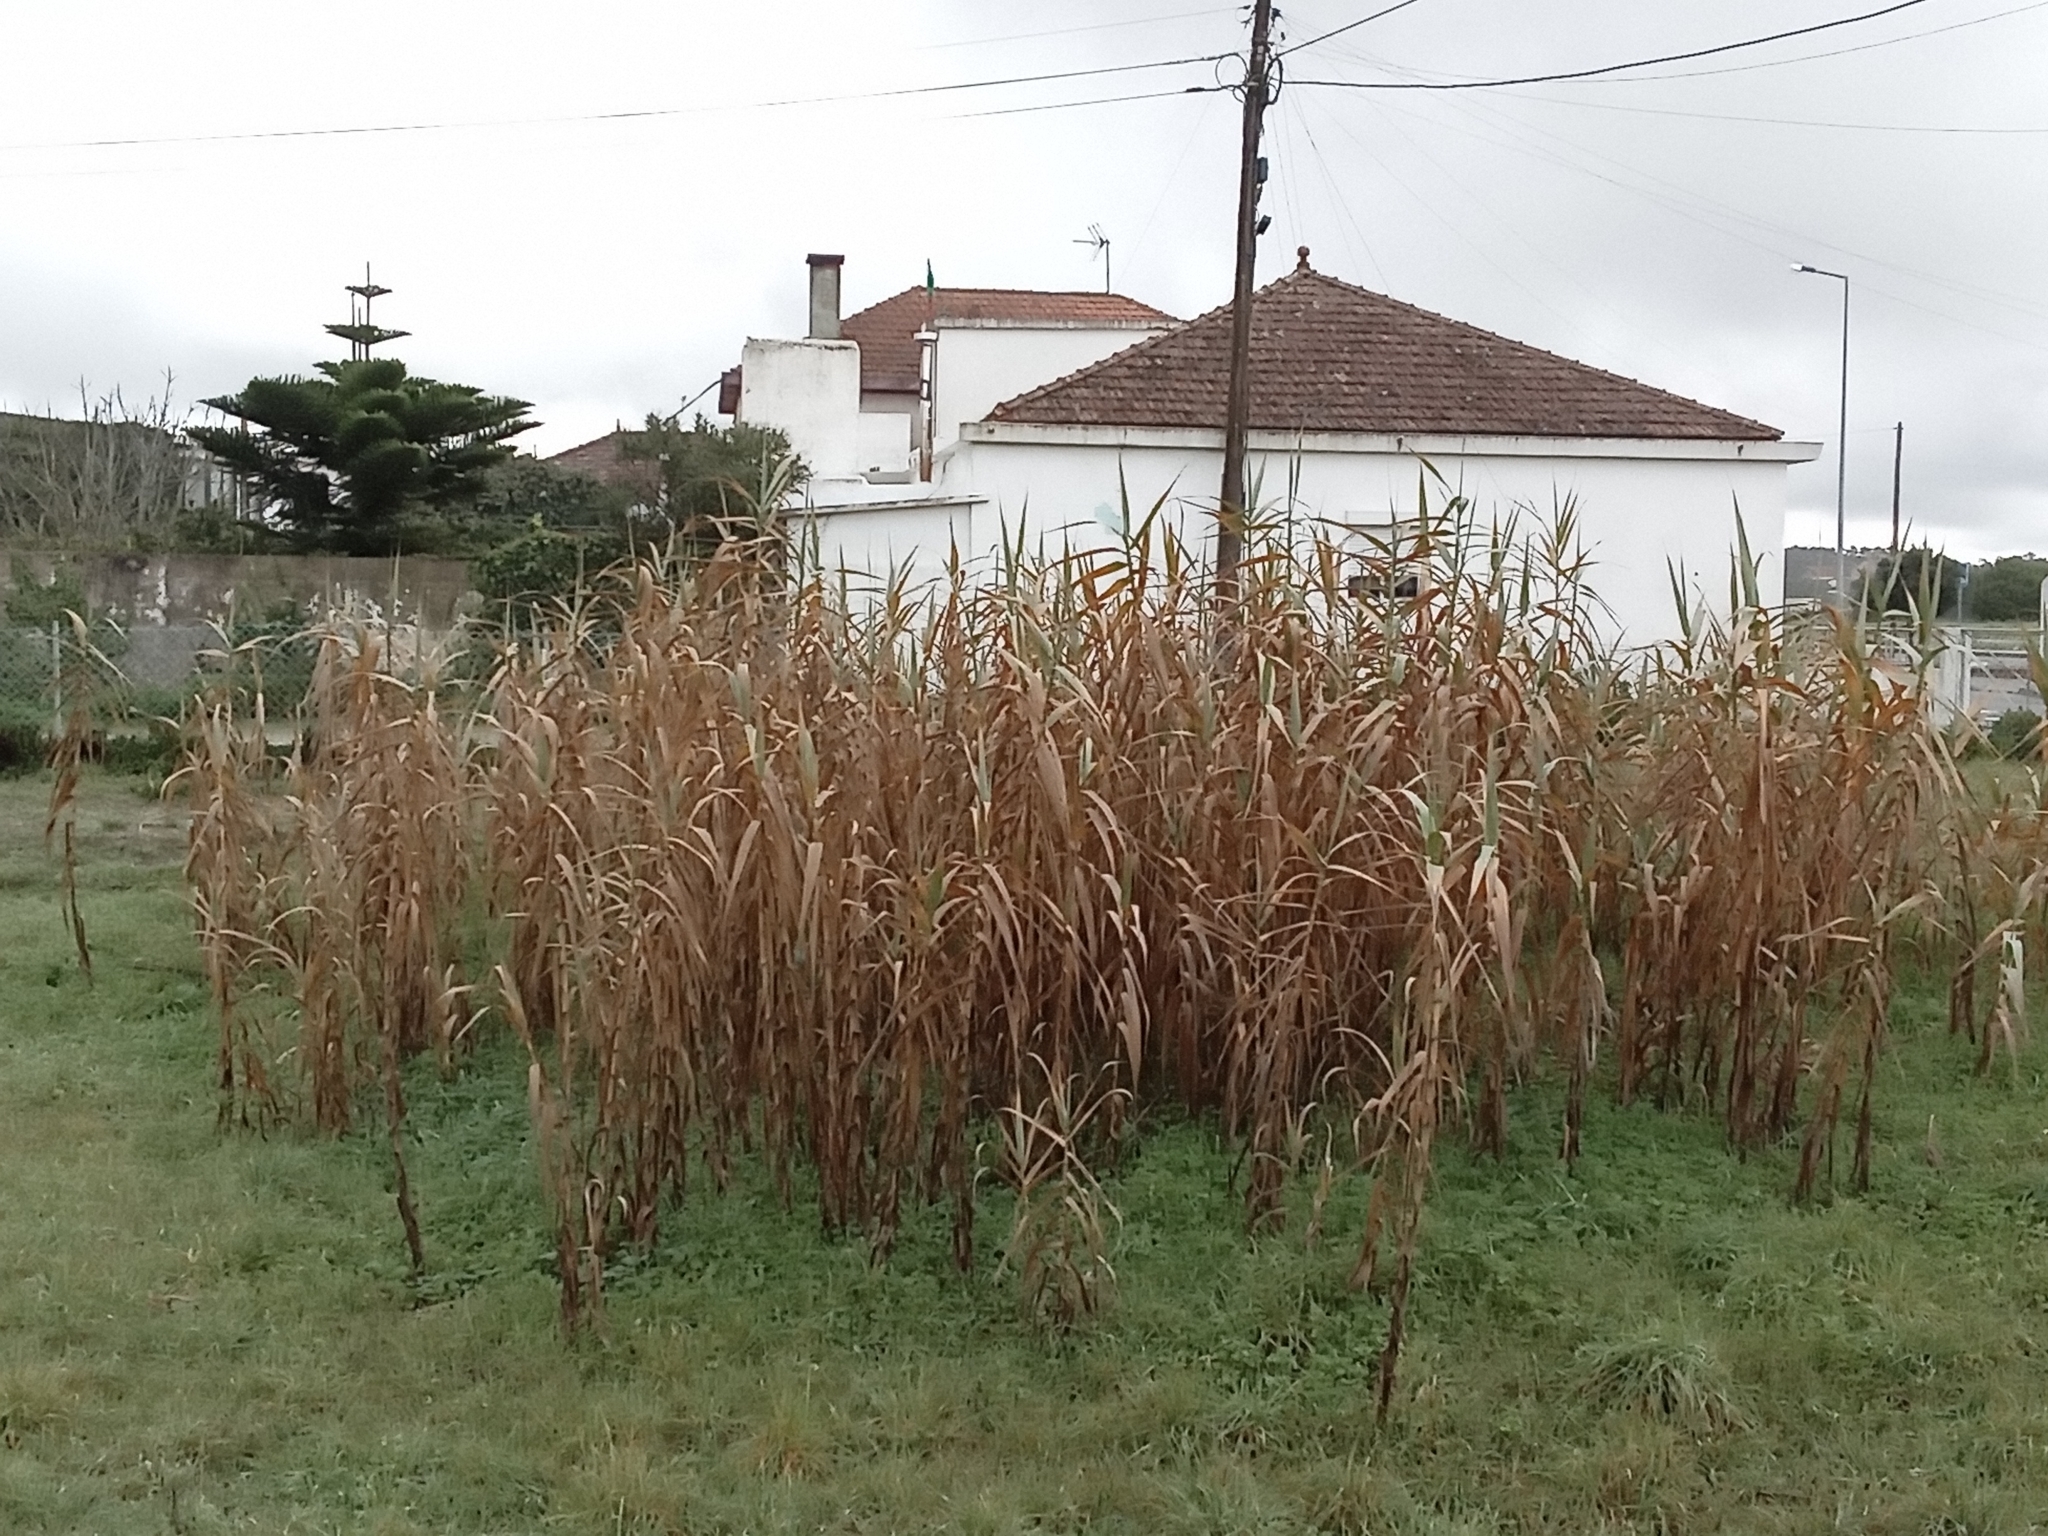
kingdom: Plantae
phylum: Tracheophyta
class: Liliopsida
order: Poales
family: Poaceae
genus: Arundo
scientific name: Arundo donax
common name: Giant reed
